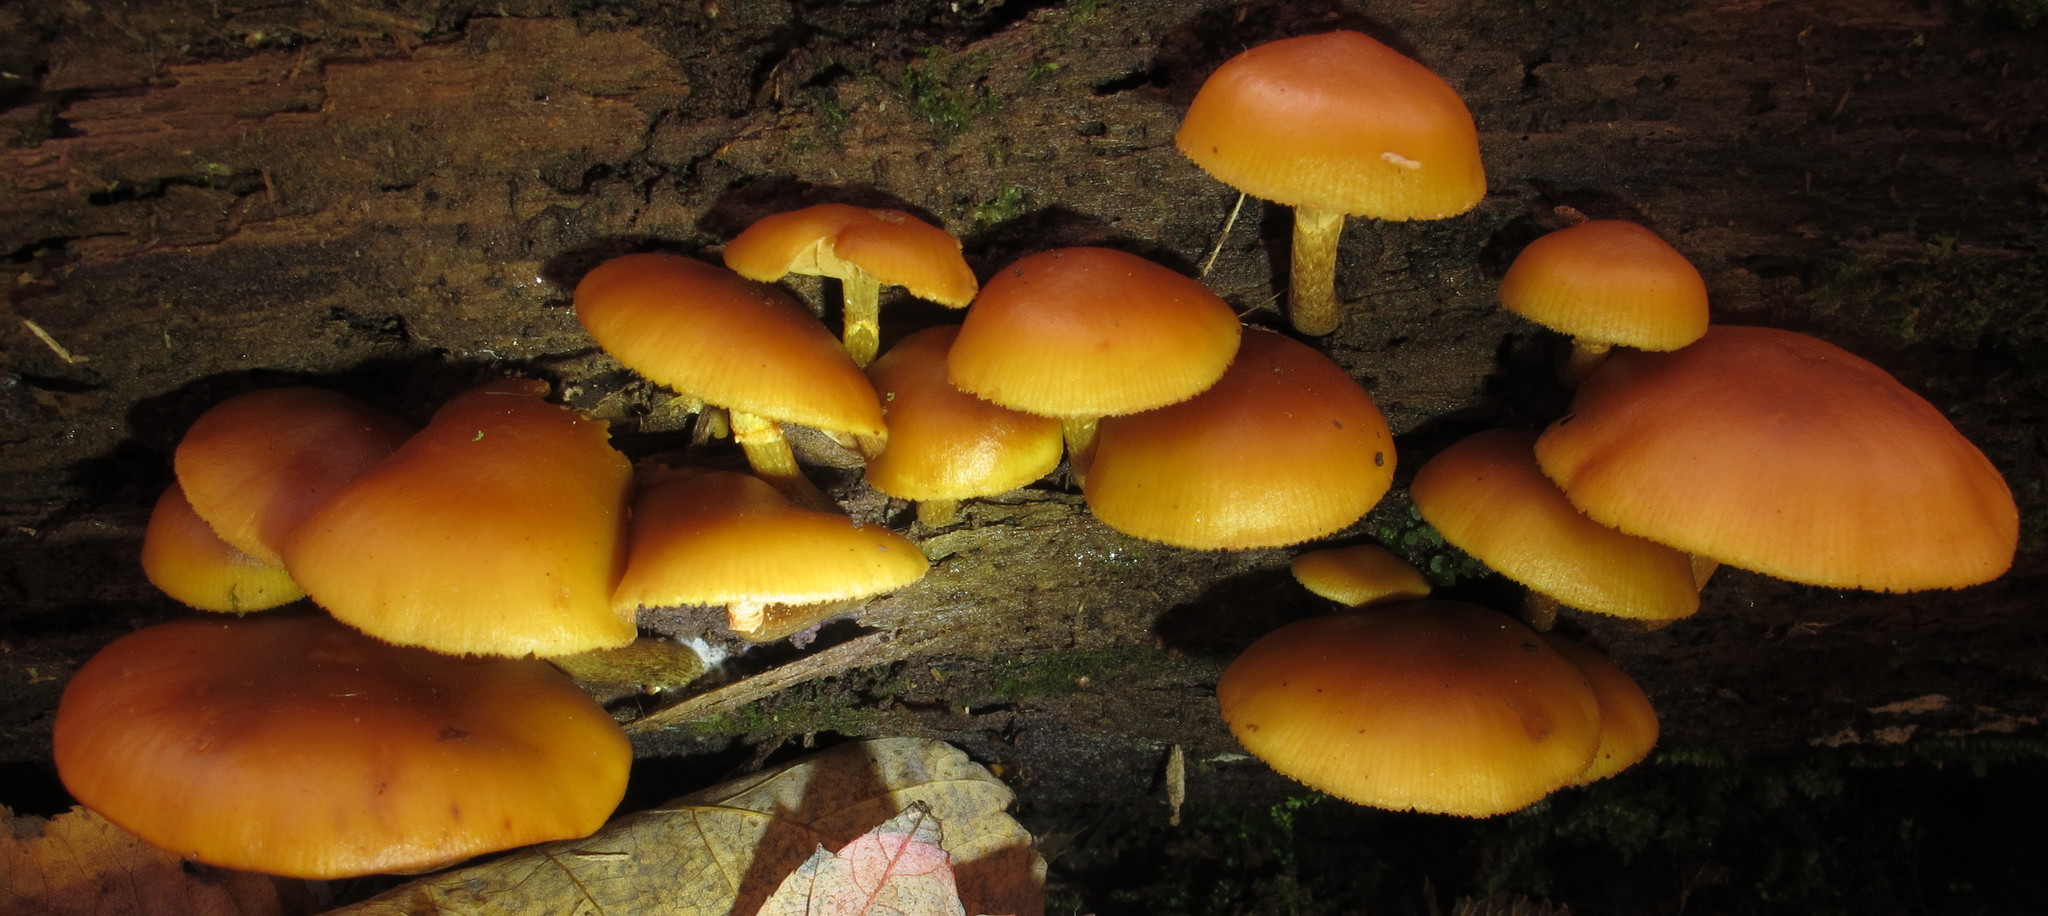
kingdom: Fungi
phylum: Basidiomycota
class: Agaricomycetes
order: Agaricales
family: Hymenogastraceae
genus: Galerina
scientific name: Galerina marginata
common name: Funeral bell
